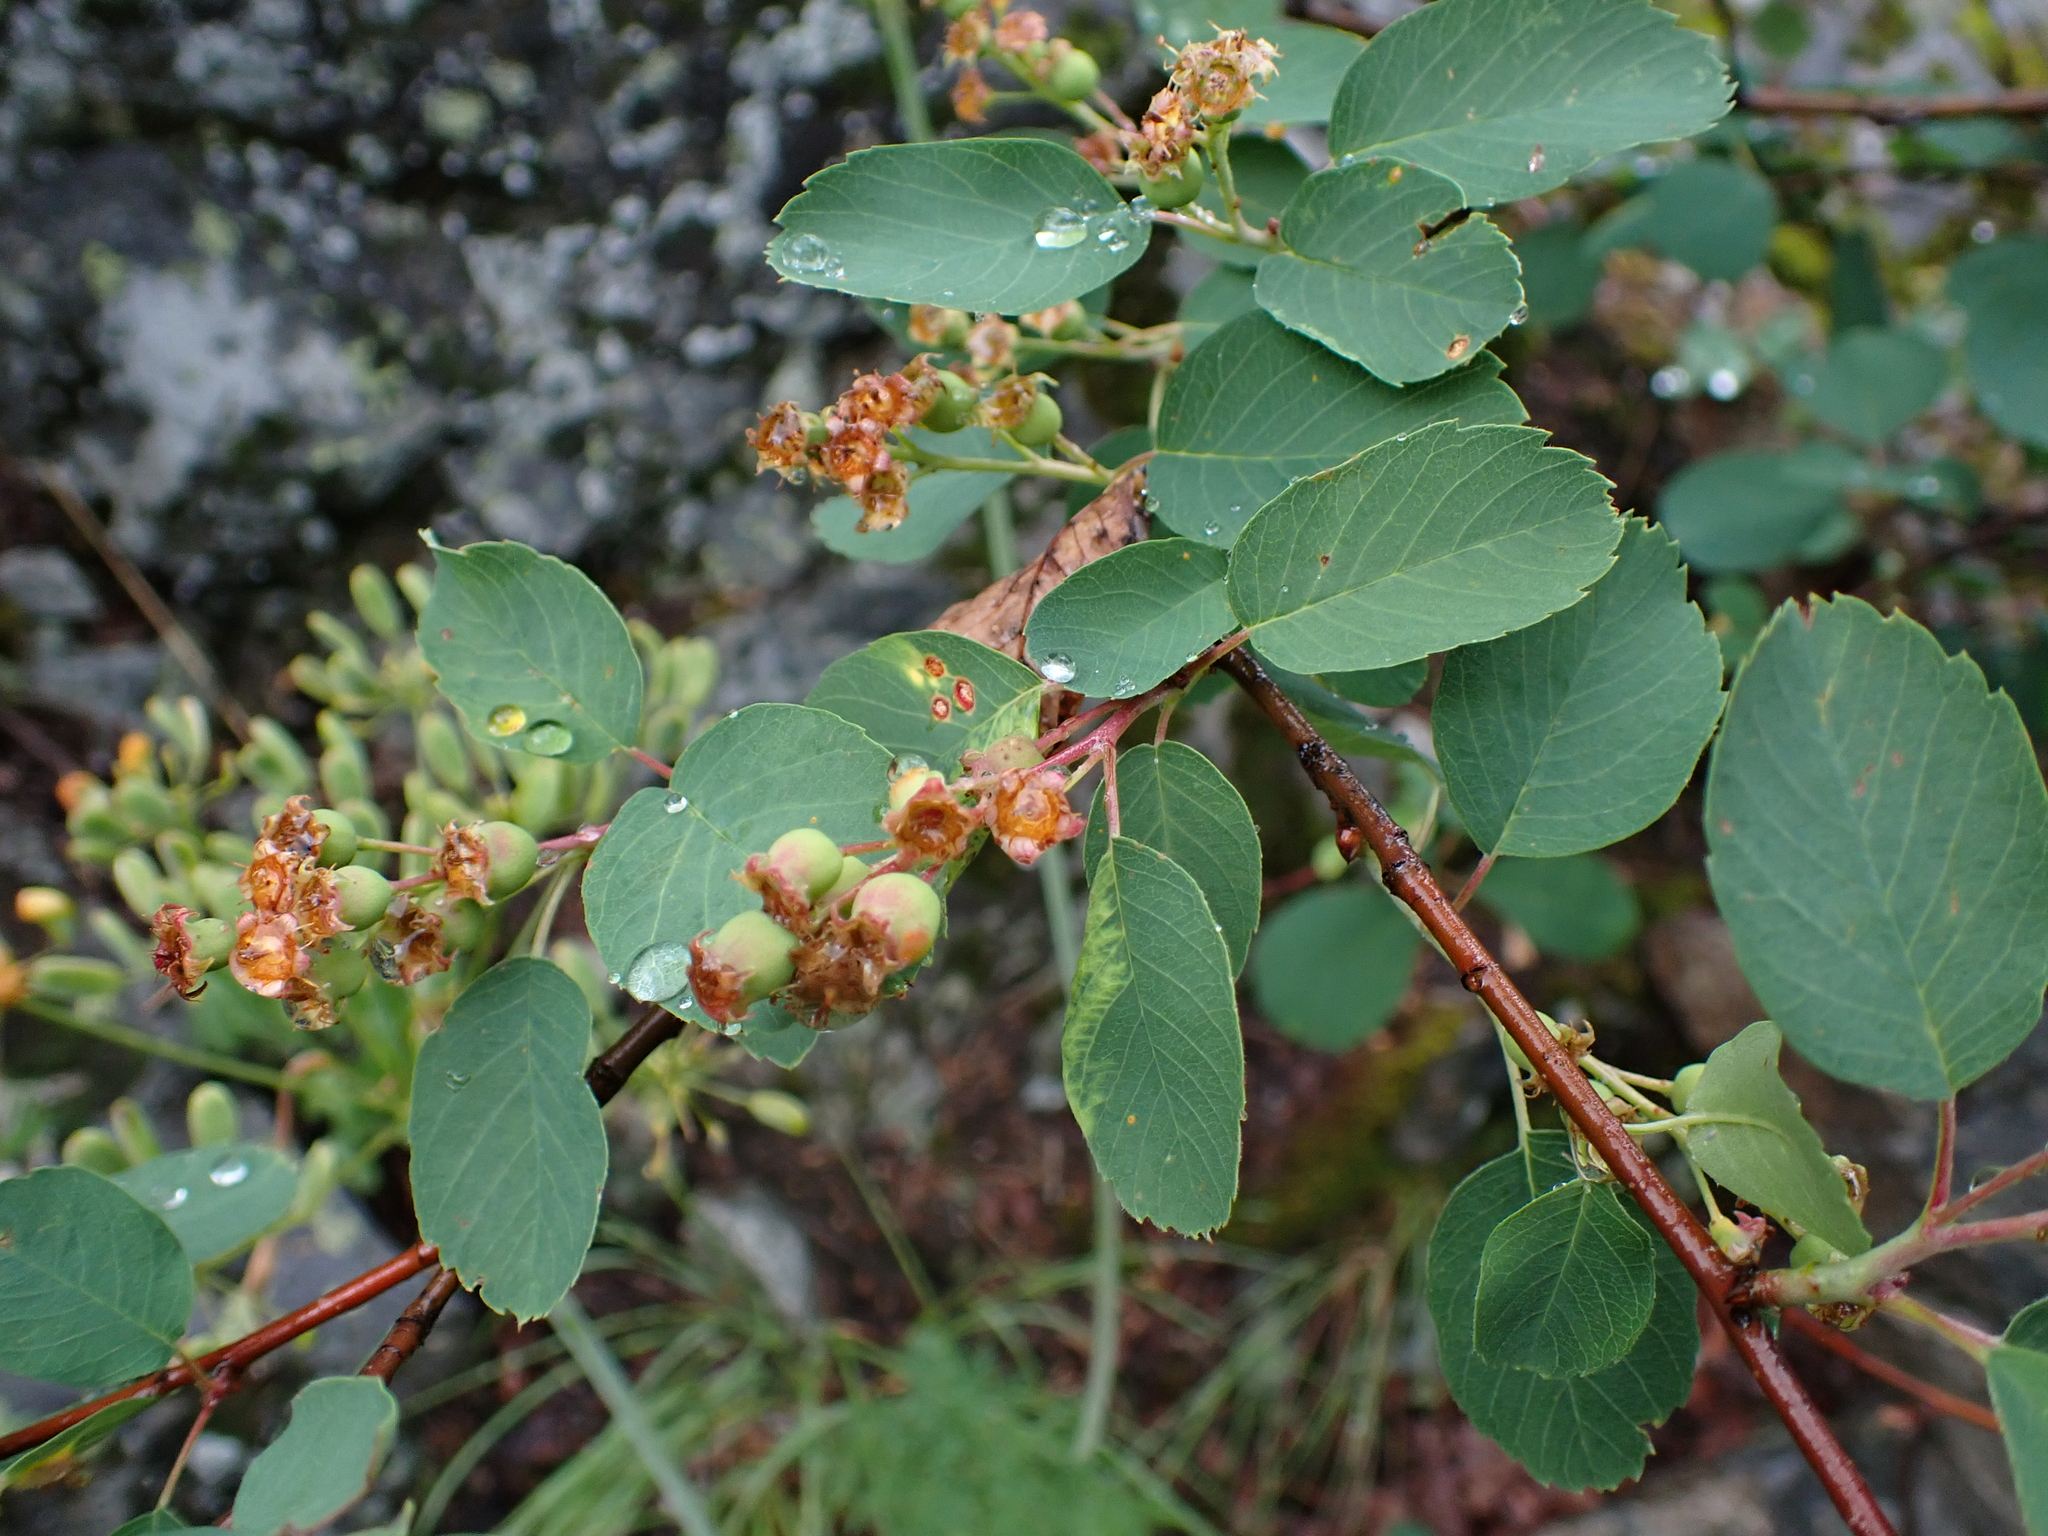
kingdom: Plantae
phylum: Tracheophyta
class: Magnoliopsida
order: Rosales
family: Rosaceae
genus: Amelanchier
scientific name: Amelanchier alnifolia
